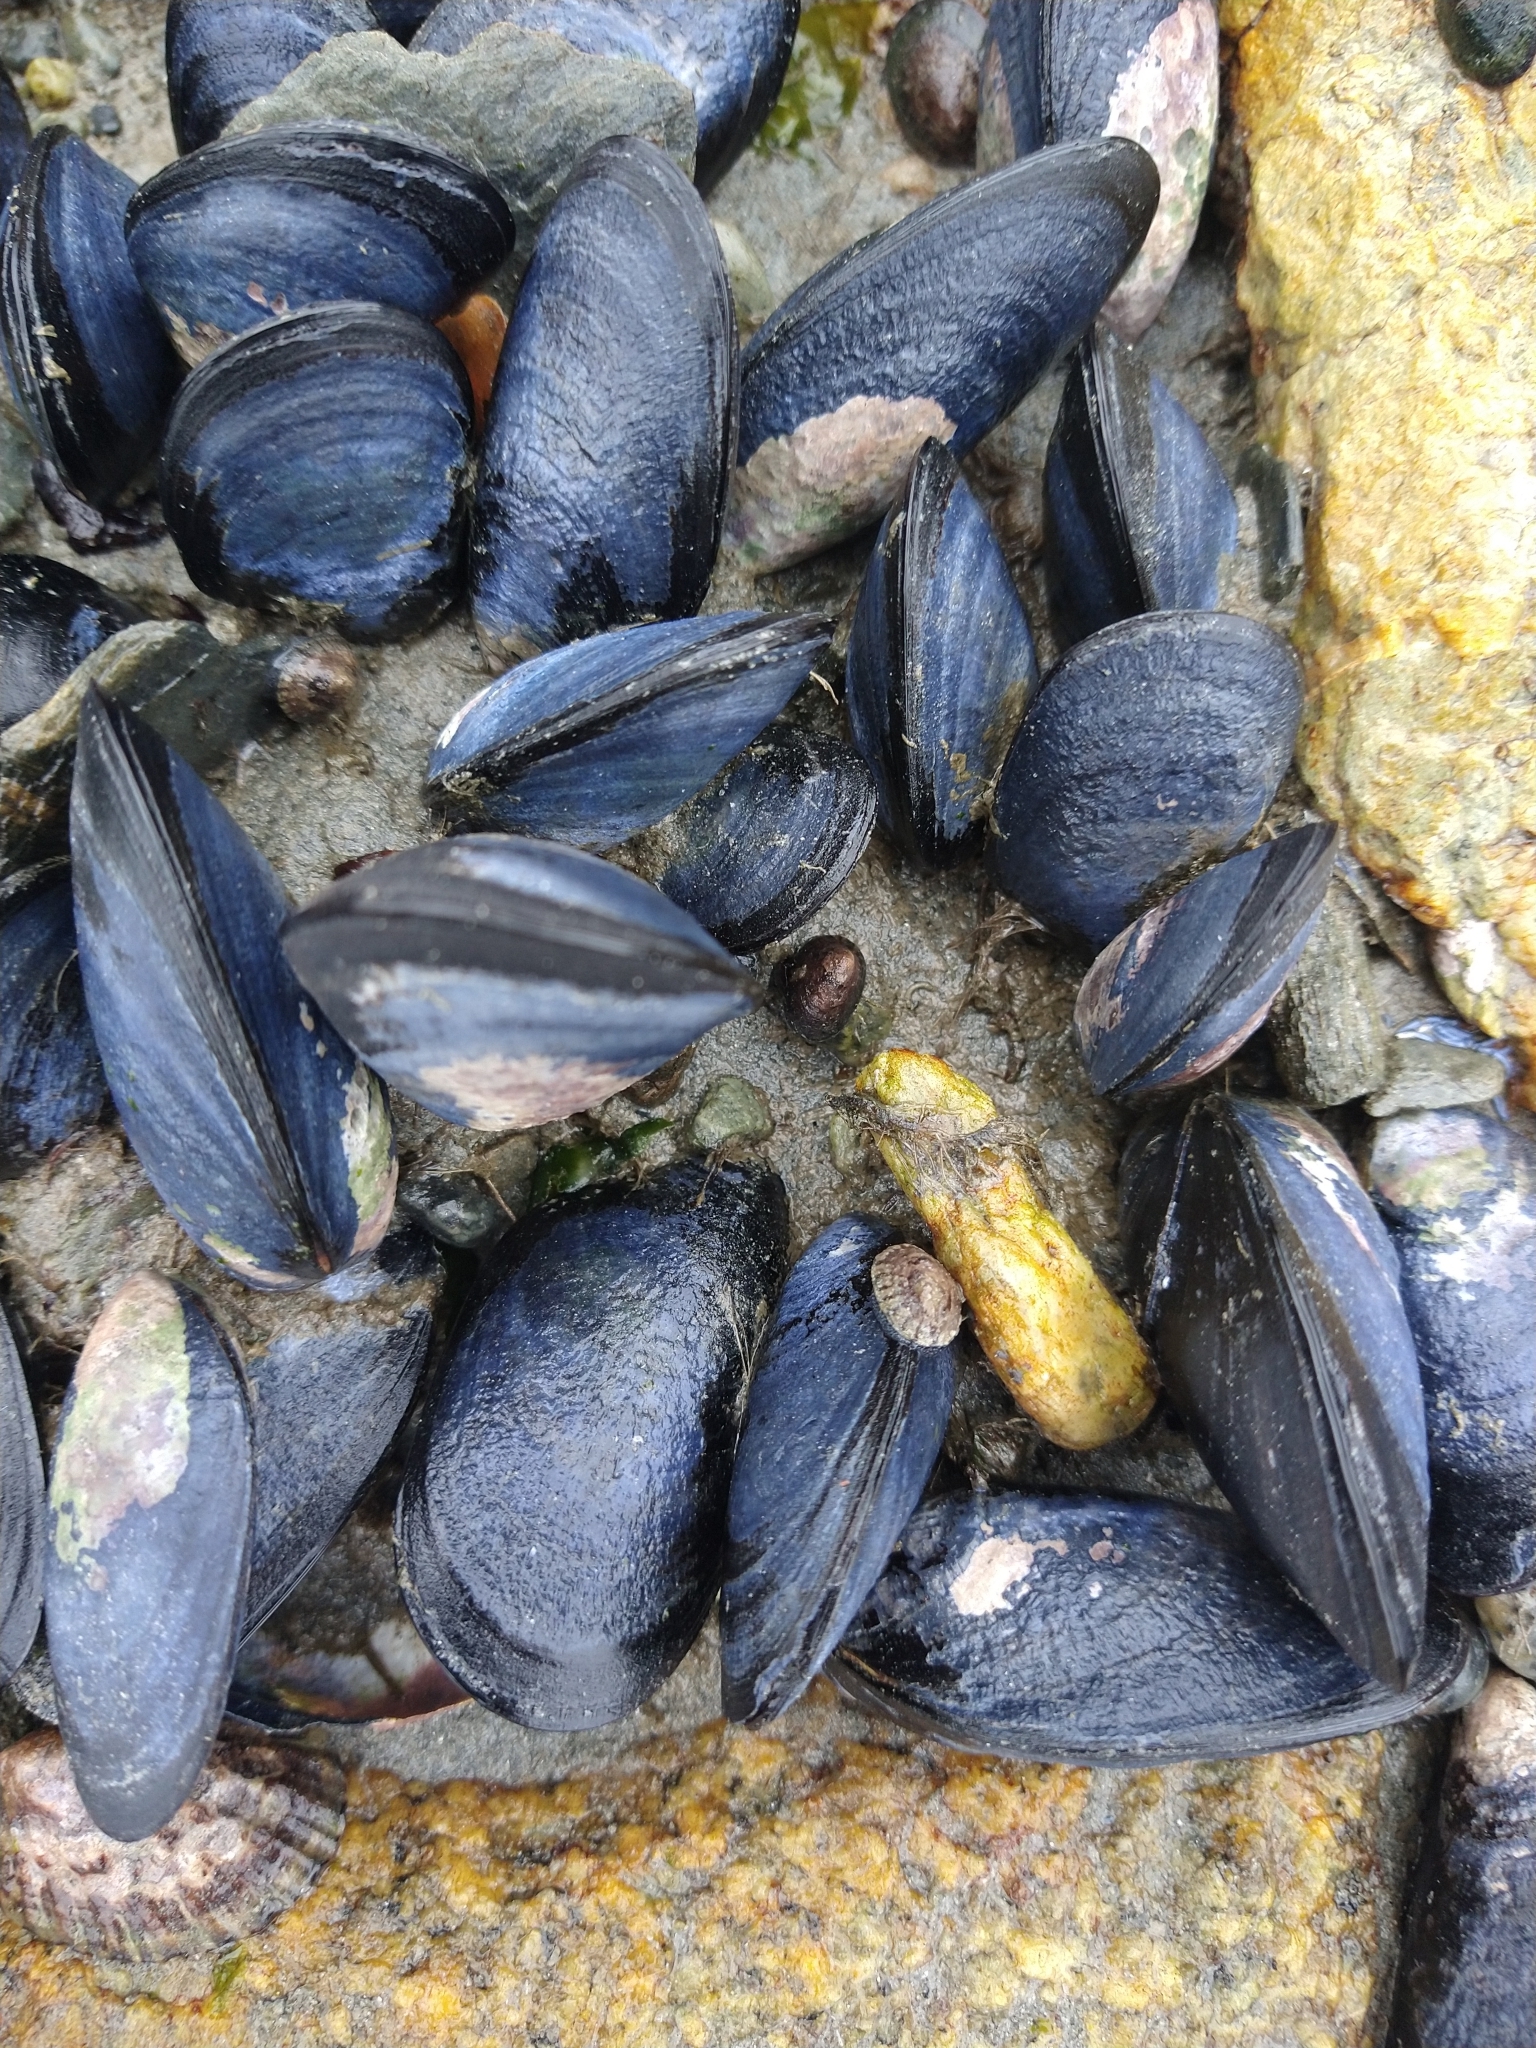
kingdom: Animalia
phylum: Mollusca
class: Bivalvia
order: Mytilida
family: Mytilidae
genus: Mytilus
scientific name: Mytilus chilensis
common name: Chilean mussel
